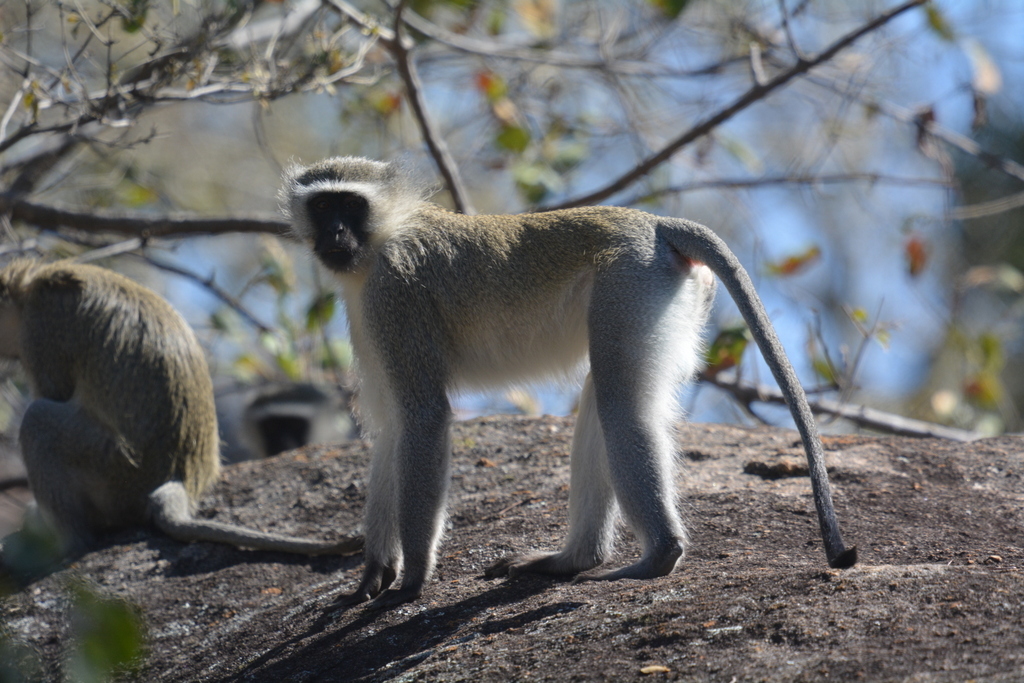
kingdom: Animalia
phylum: Chordata
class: Mammalia
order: Primates
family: Cercopithecidae
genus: Chlorocebus
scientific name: Chlorocebus pygerythrus
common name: Vervet monkey
